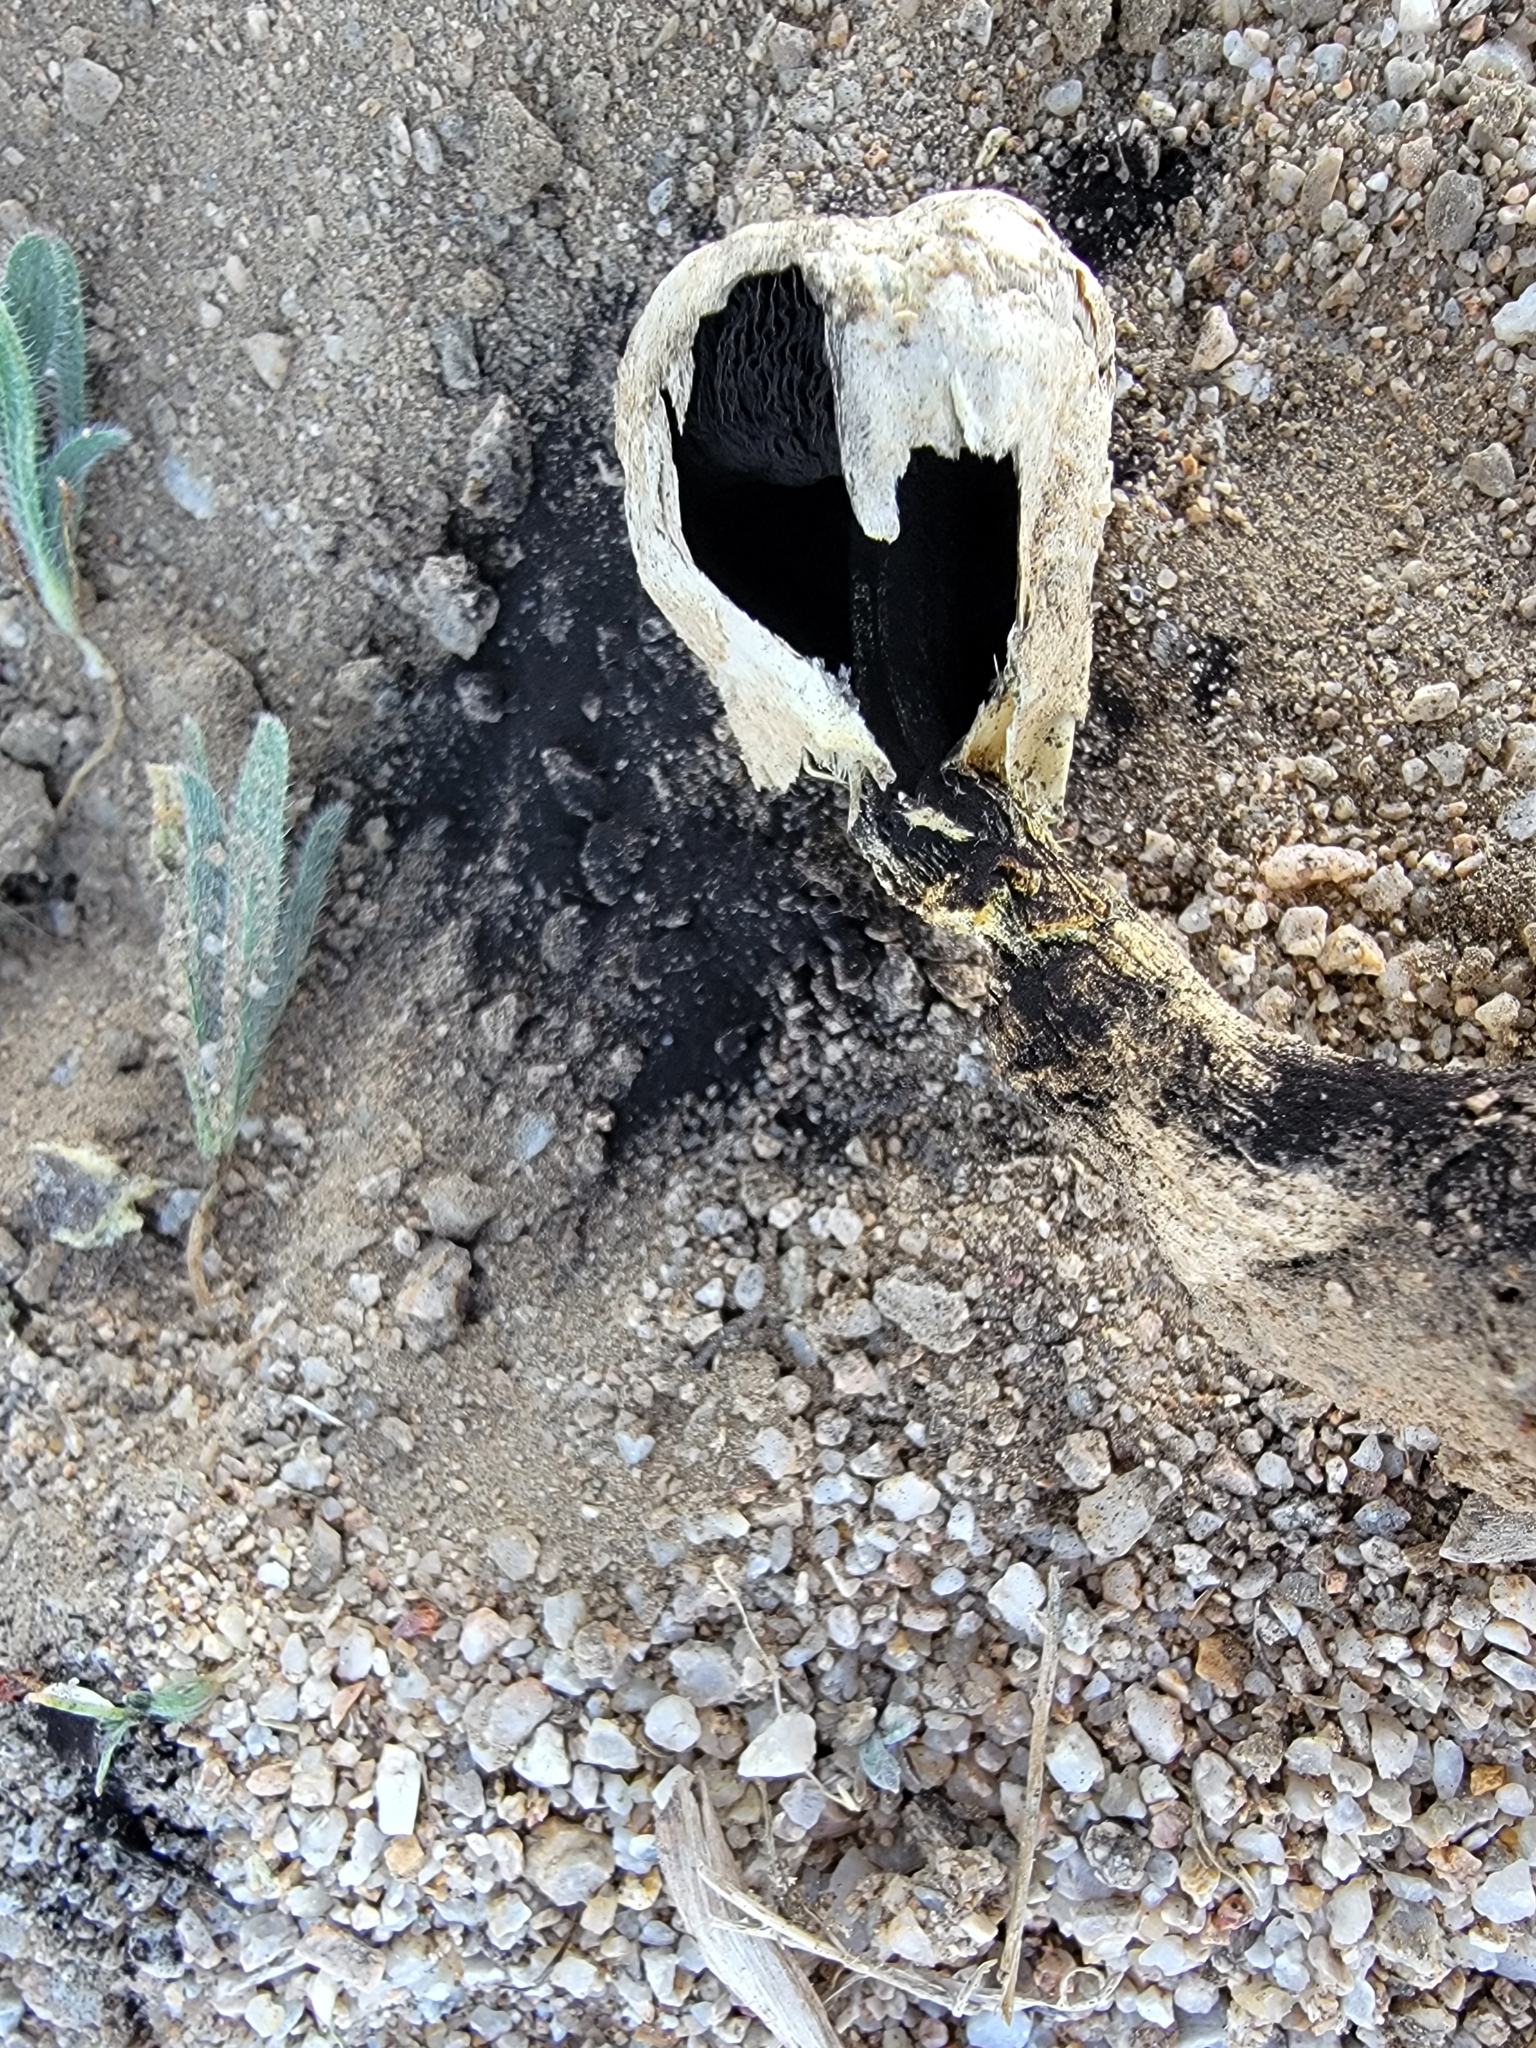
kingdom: Fungi
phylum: Basidiomycota
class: Agaricomycetes
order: Agaricales
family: Agaricaceae
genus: Agaricus
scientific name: Agaricus deserticola
